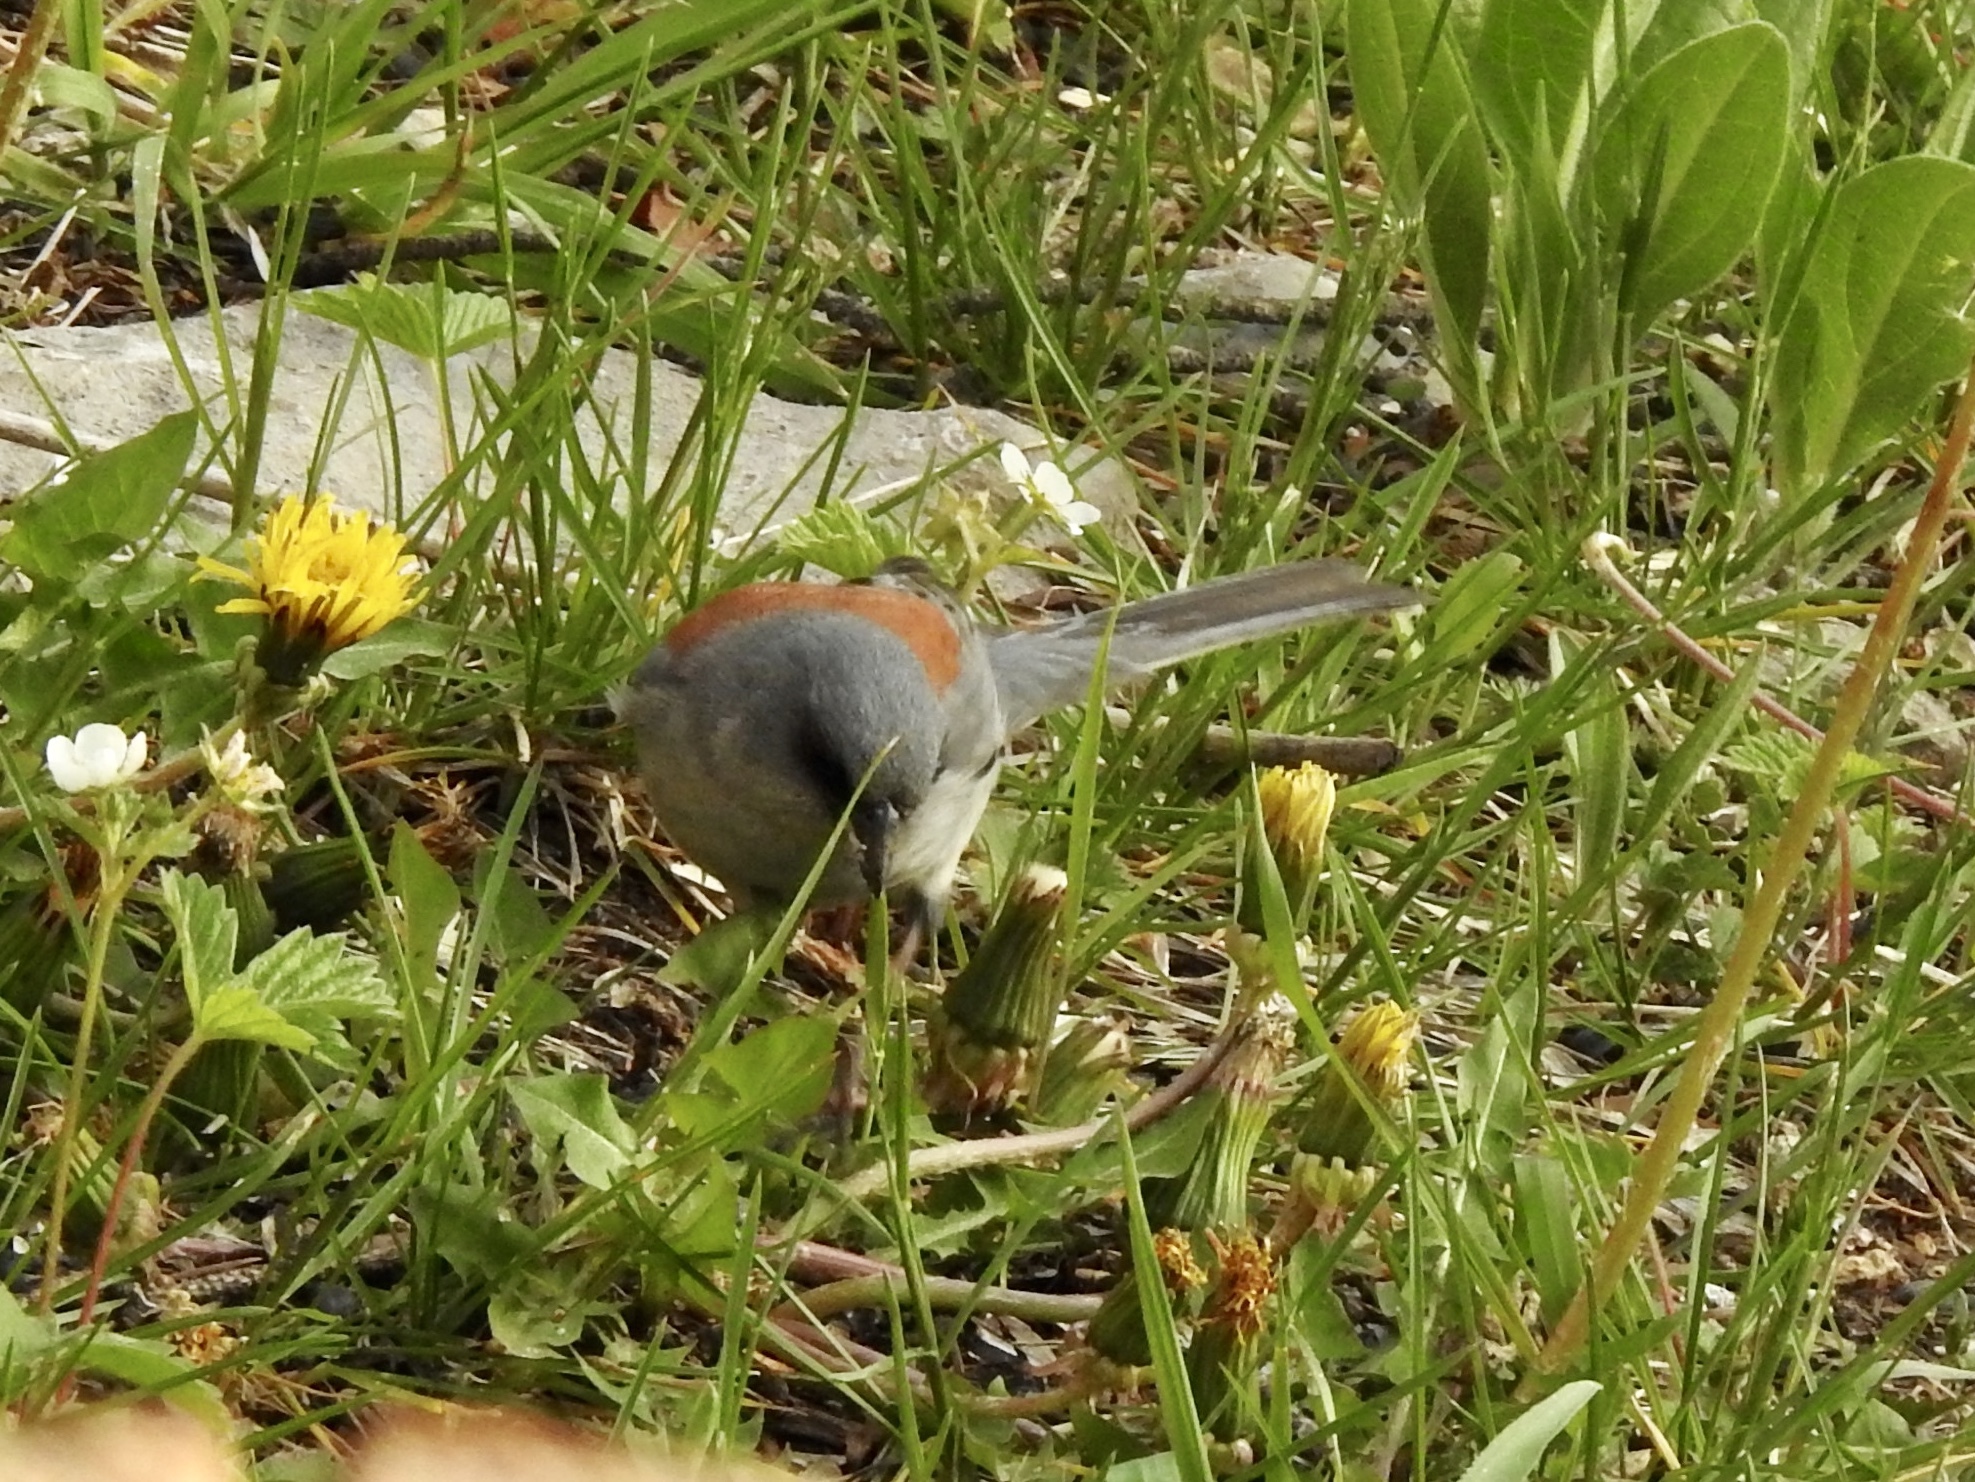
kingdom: Animalia
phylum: Chordata
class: Aves
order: Passeriformes
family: Passerellidae
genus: Junco
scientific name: Junco hyemalis
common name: Dark-eyed junco
